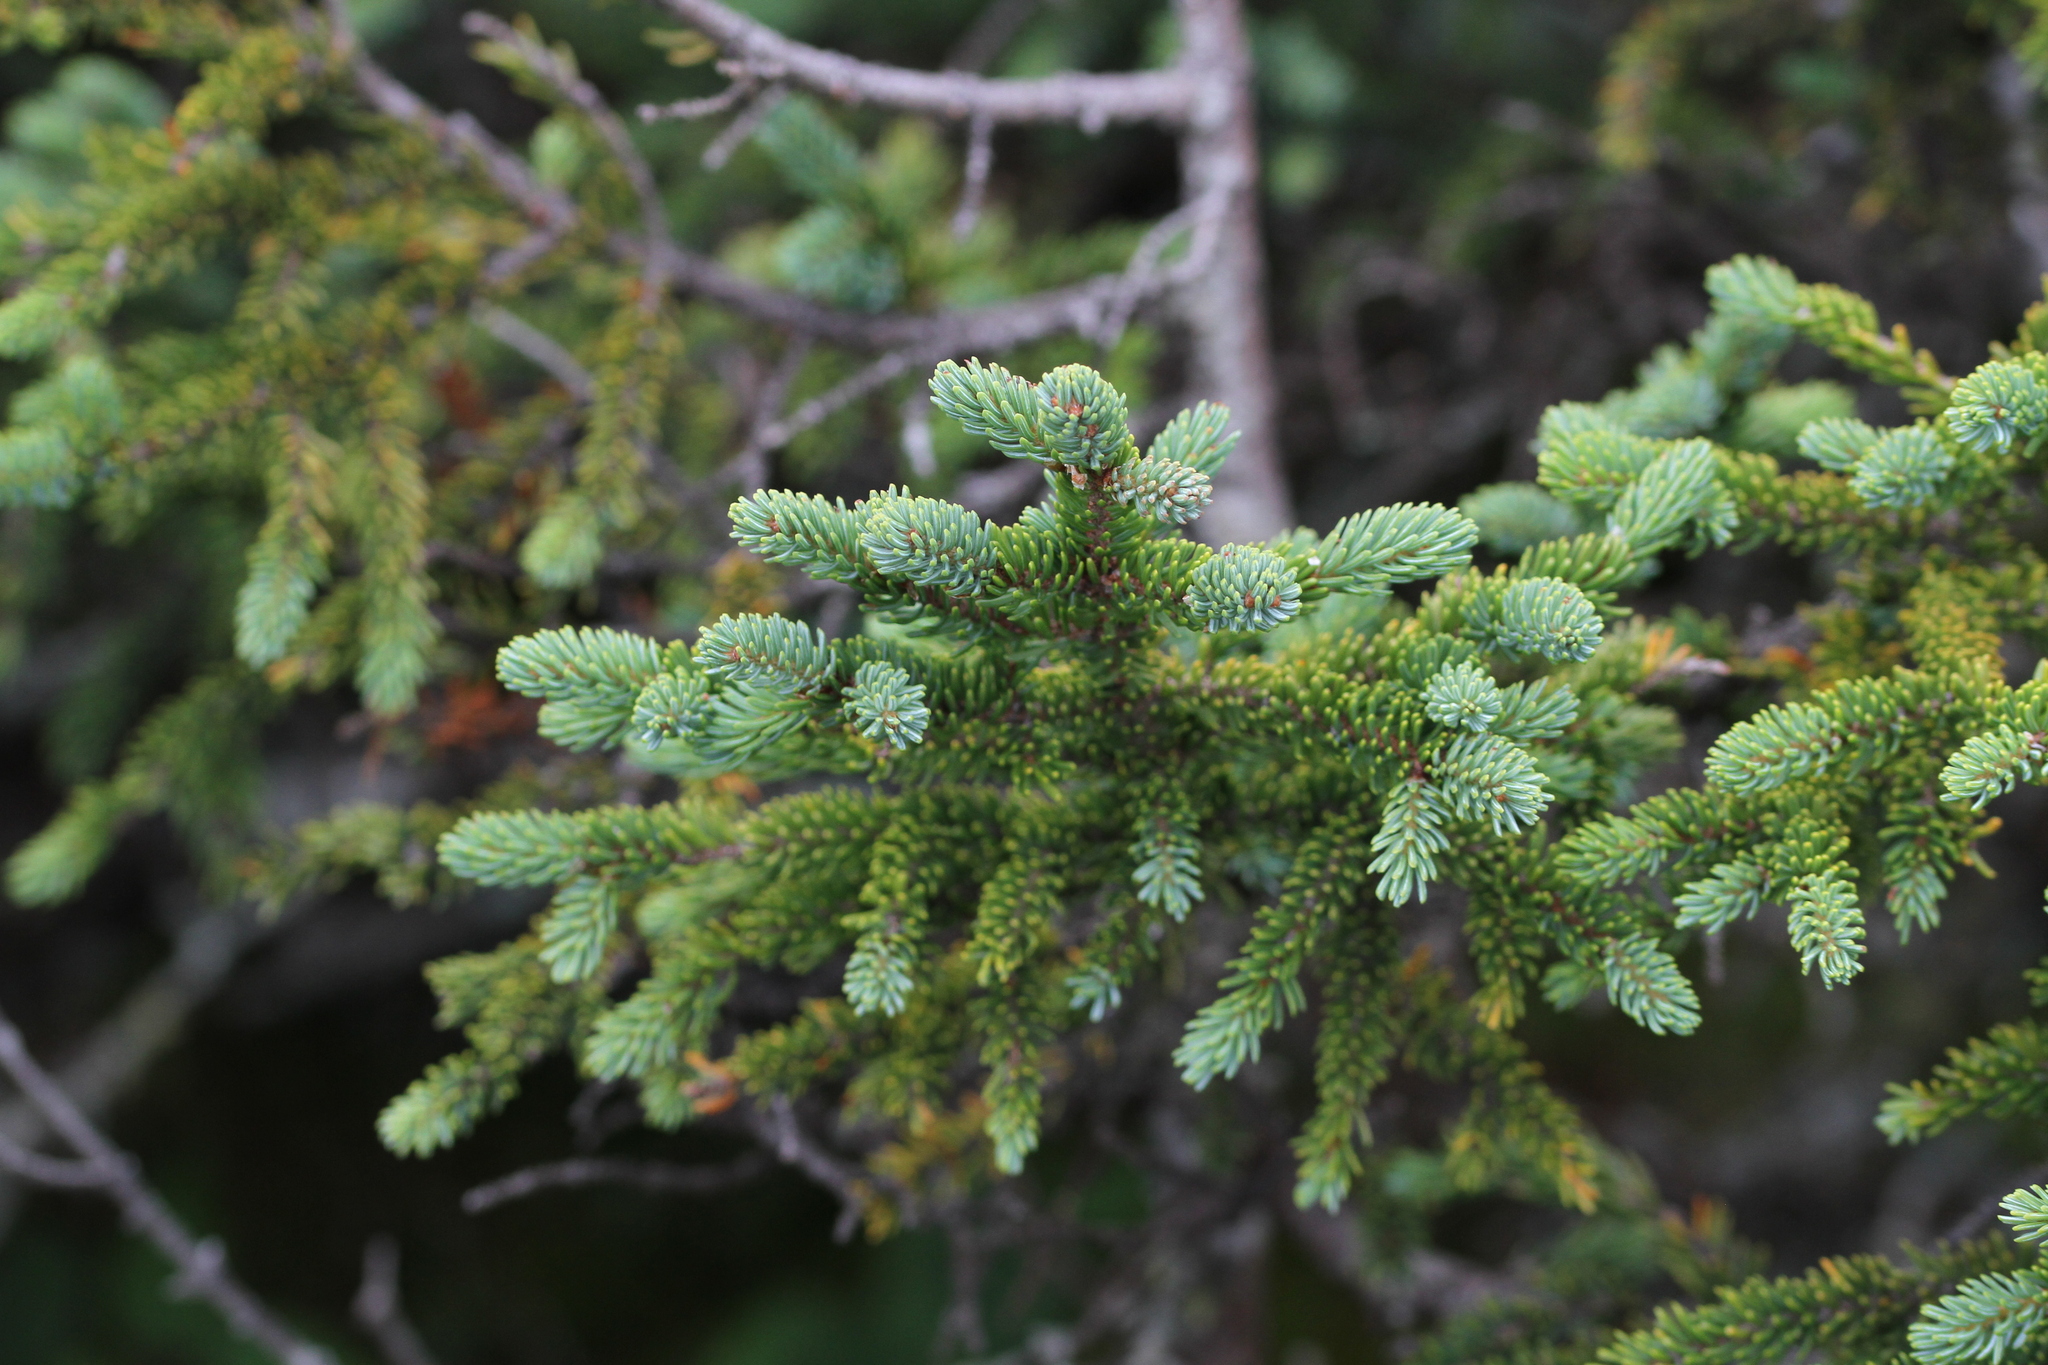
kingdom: Plantae
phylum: Tracheophyta
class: Pinopsida
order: Pinales
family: Pinaceae
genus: Picea
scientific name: Picea mariana
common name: Black spruce
